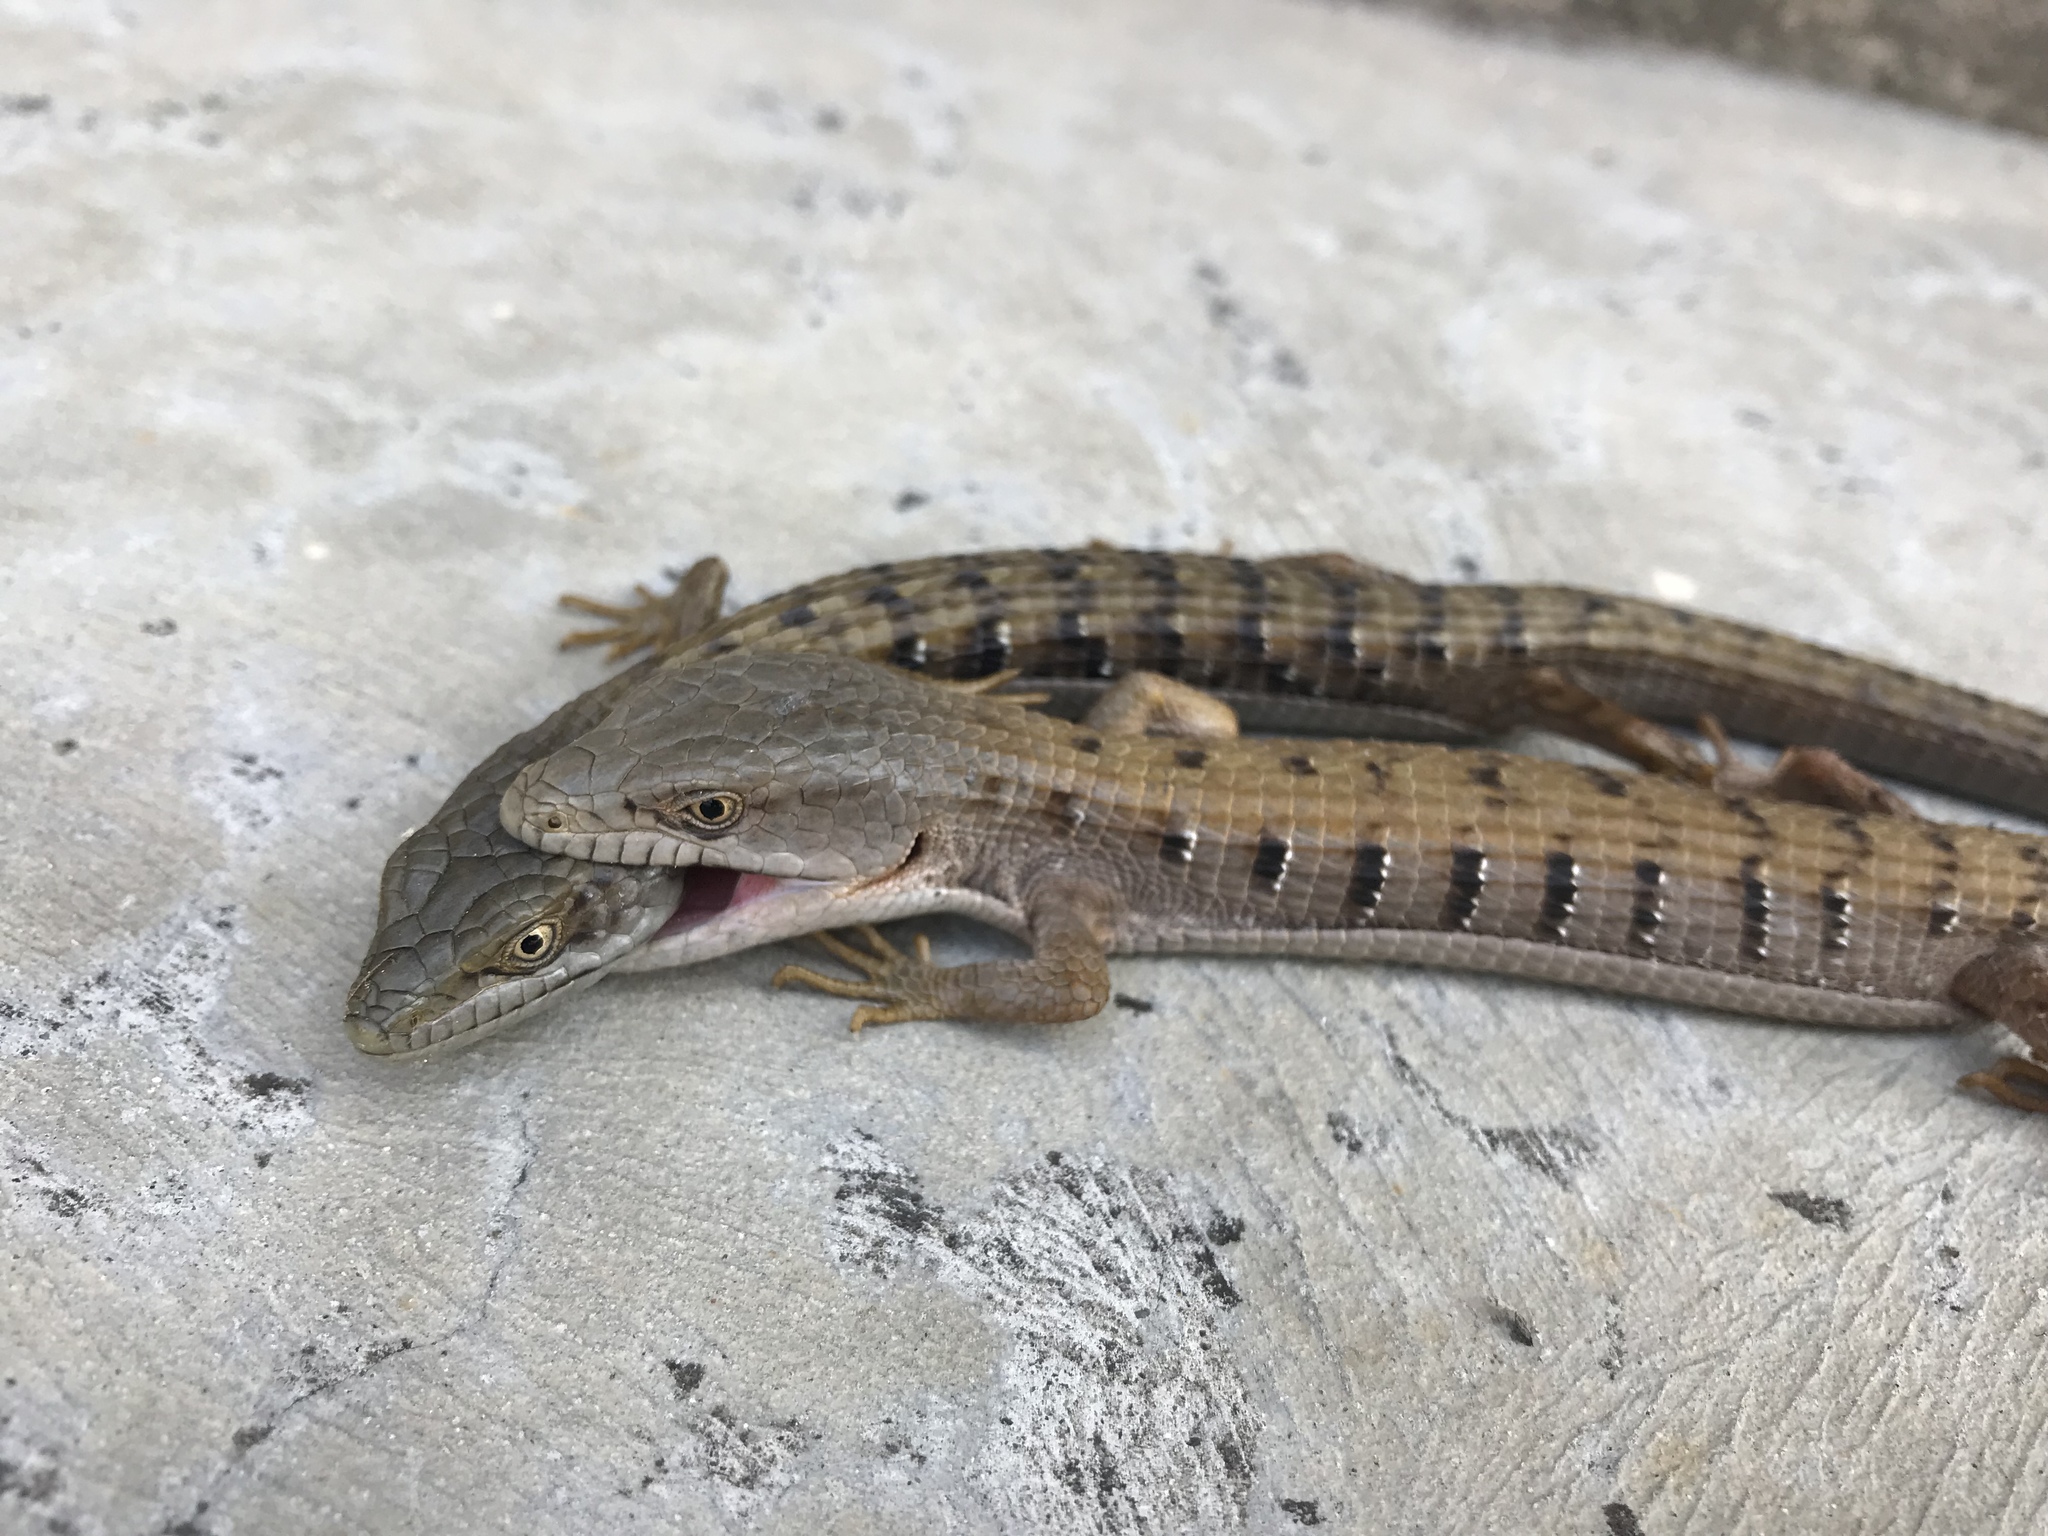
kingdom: Animalia
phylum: Chordata
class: Squamata
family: Anguidae
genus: Elgaria
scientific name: Elgaria multicarinata
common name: Southern alligator lizard
